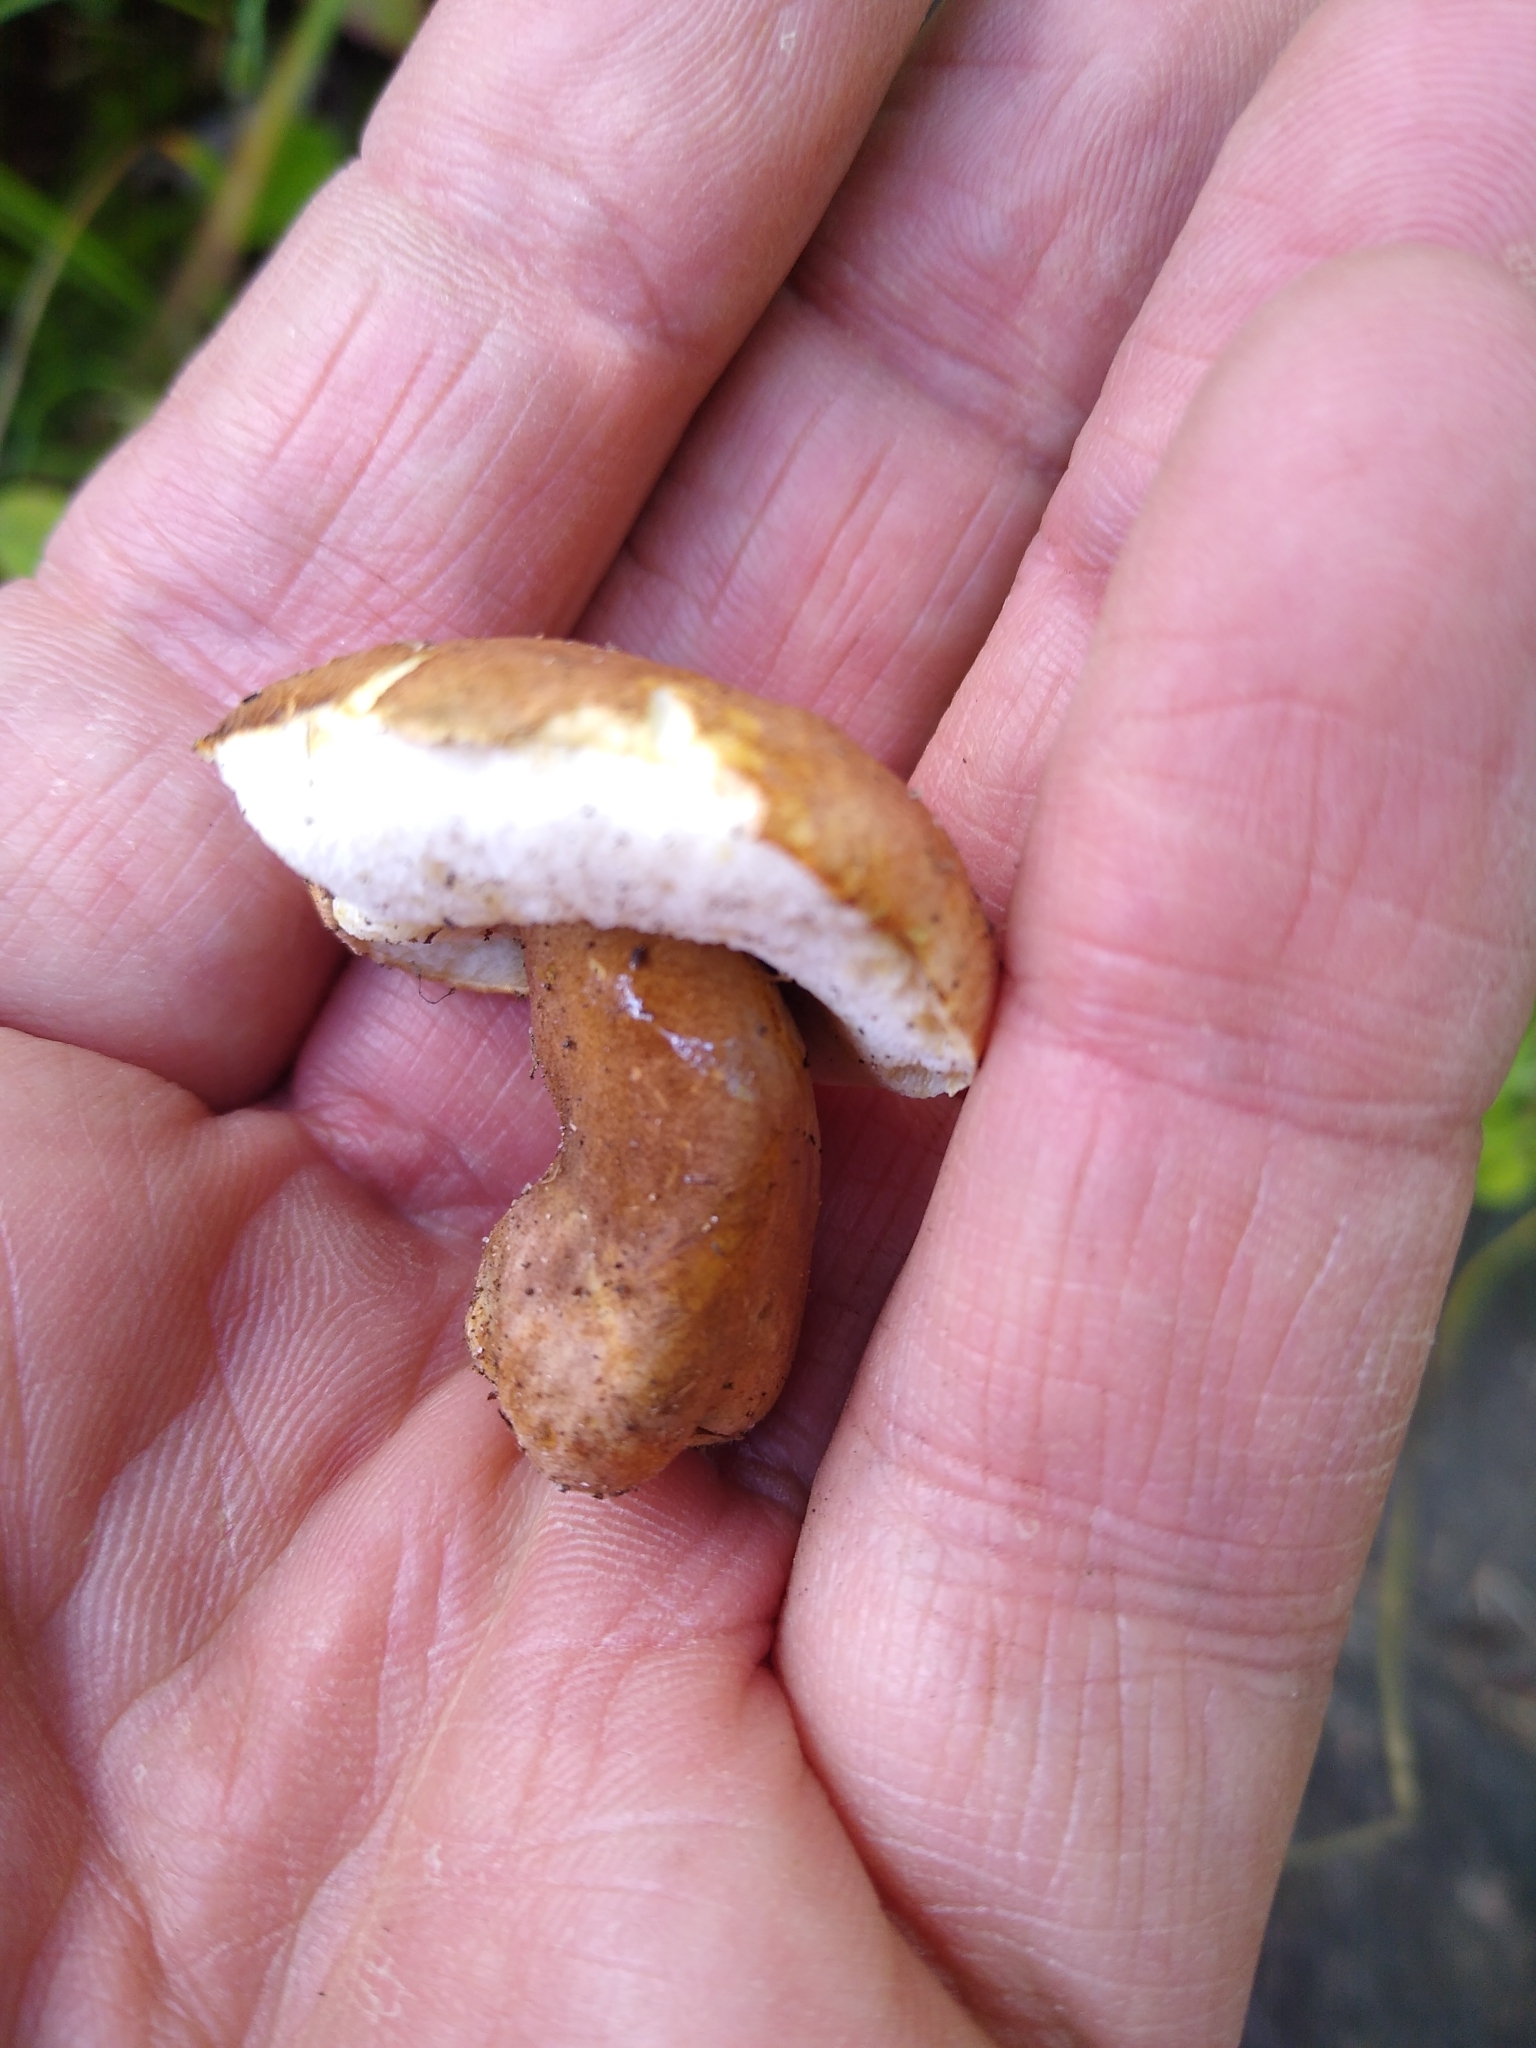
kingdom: Fungi
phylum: Basidiomycota
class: Agaricomycetes
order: Boletales
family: Gyroporaceae
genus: Gyroporus
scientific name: Gyroporus castaneus
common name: Chestnut bolete
